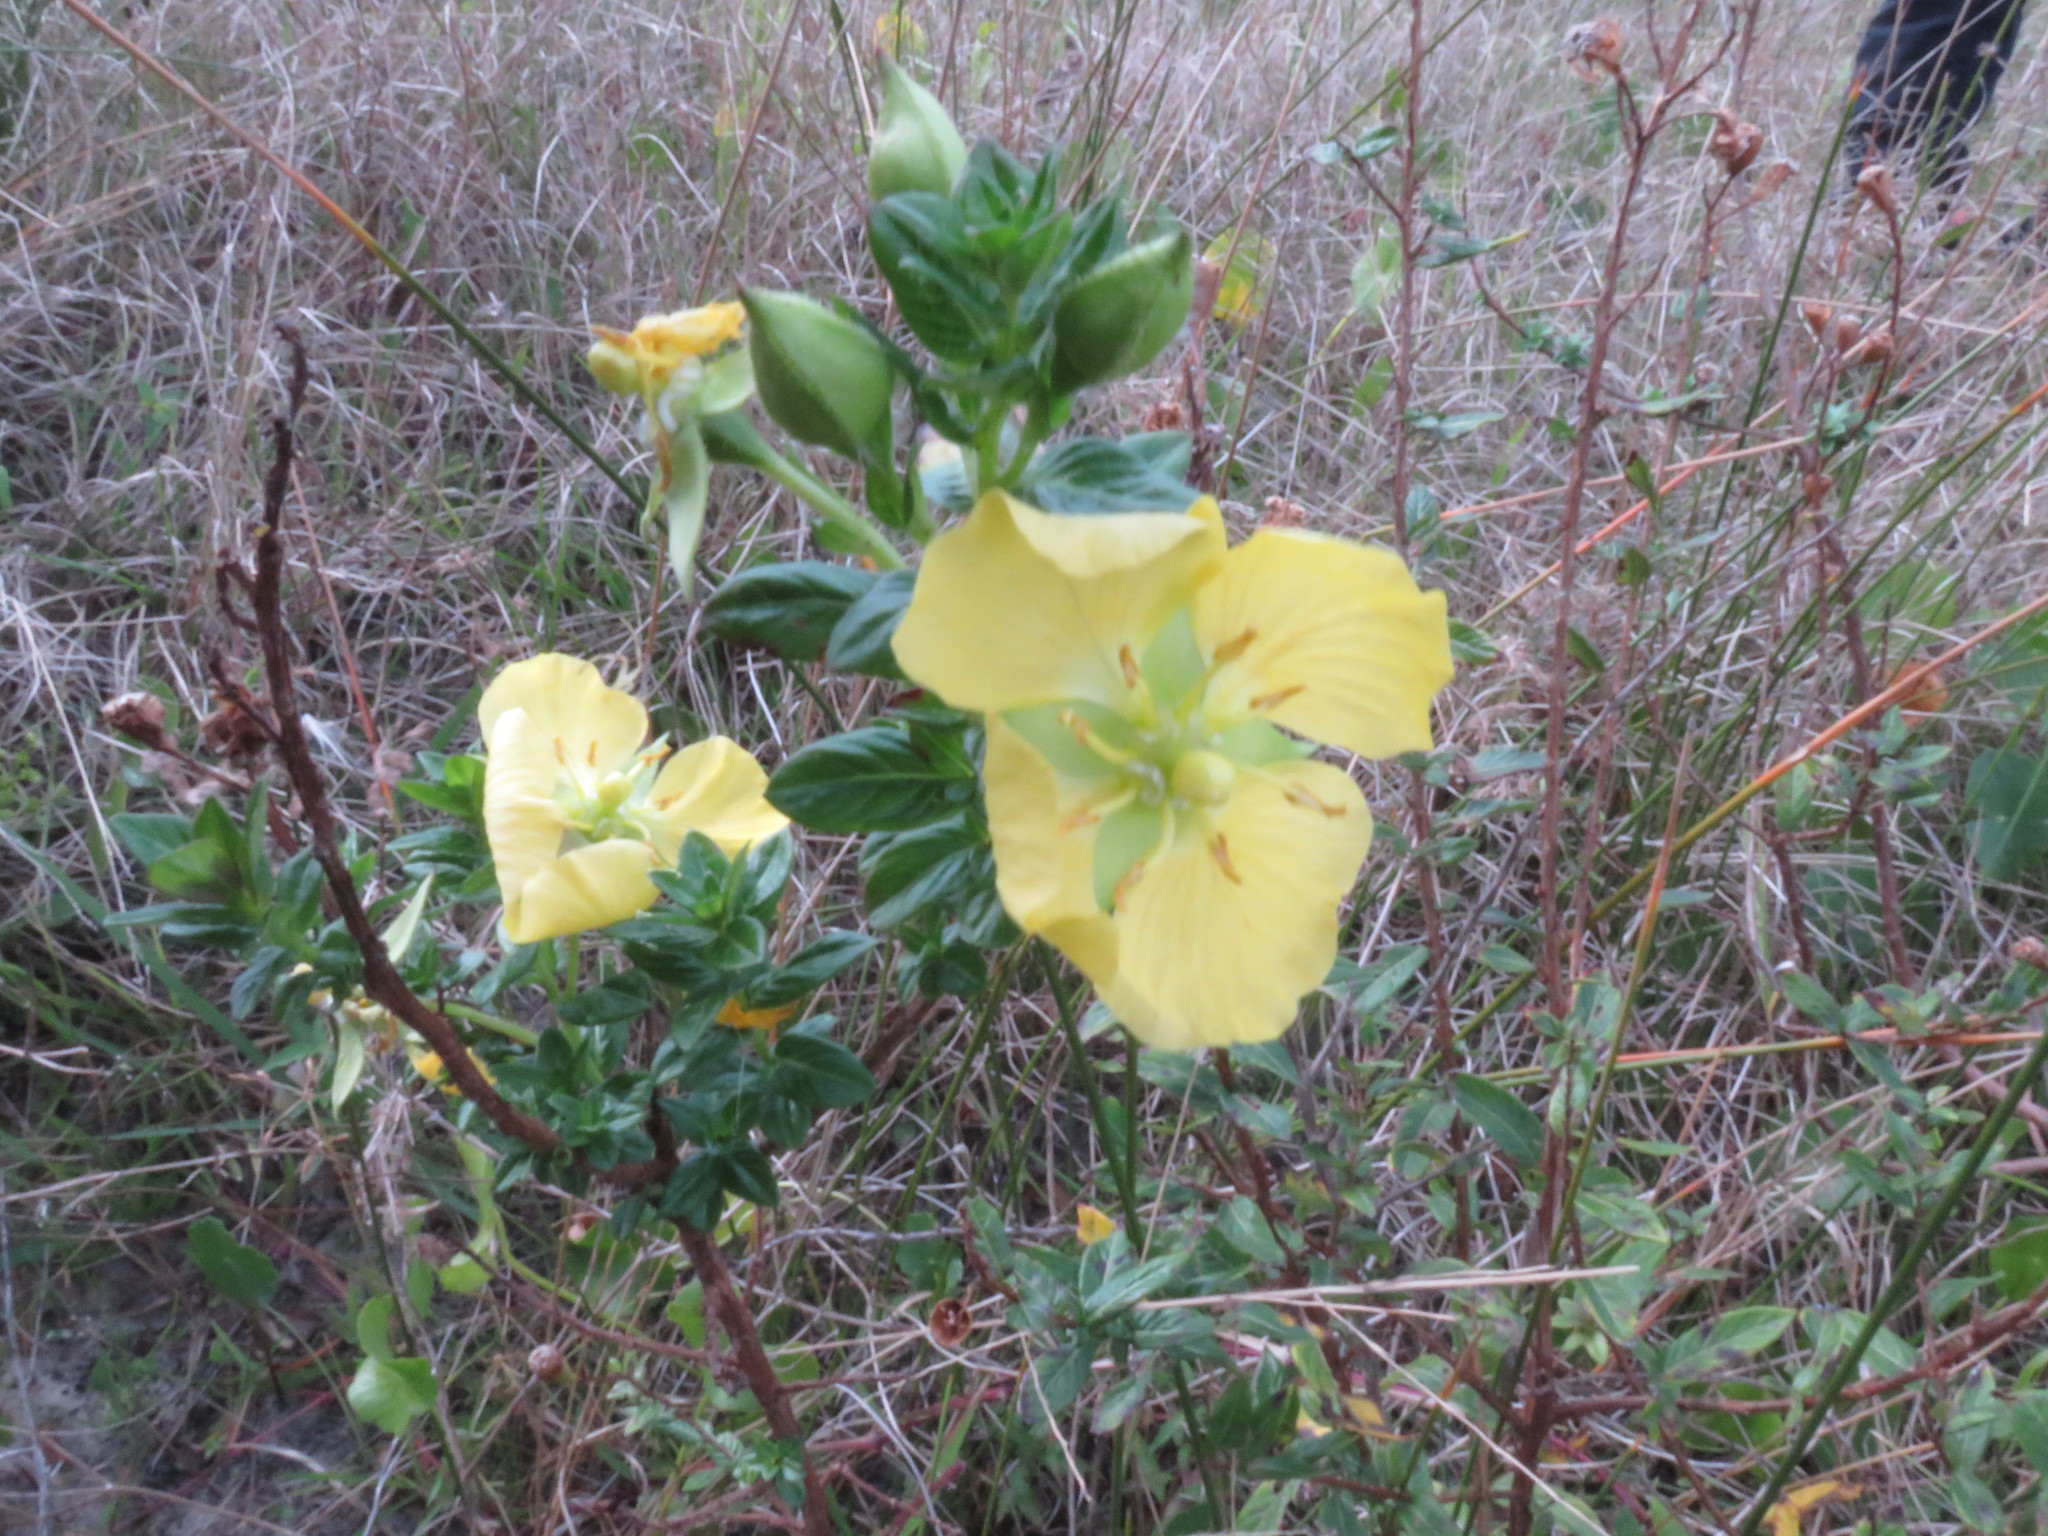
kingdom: Plantae
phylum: Tracheophyta
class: Magnoliopsida
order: Myrtales
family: Onagraceae
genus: Ludwigia
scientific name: Ludwigia multinervia
